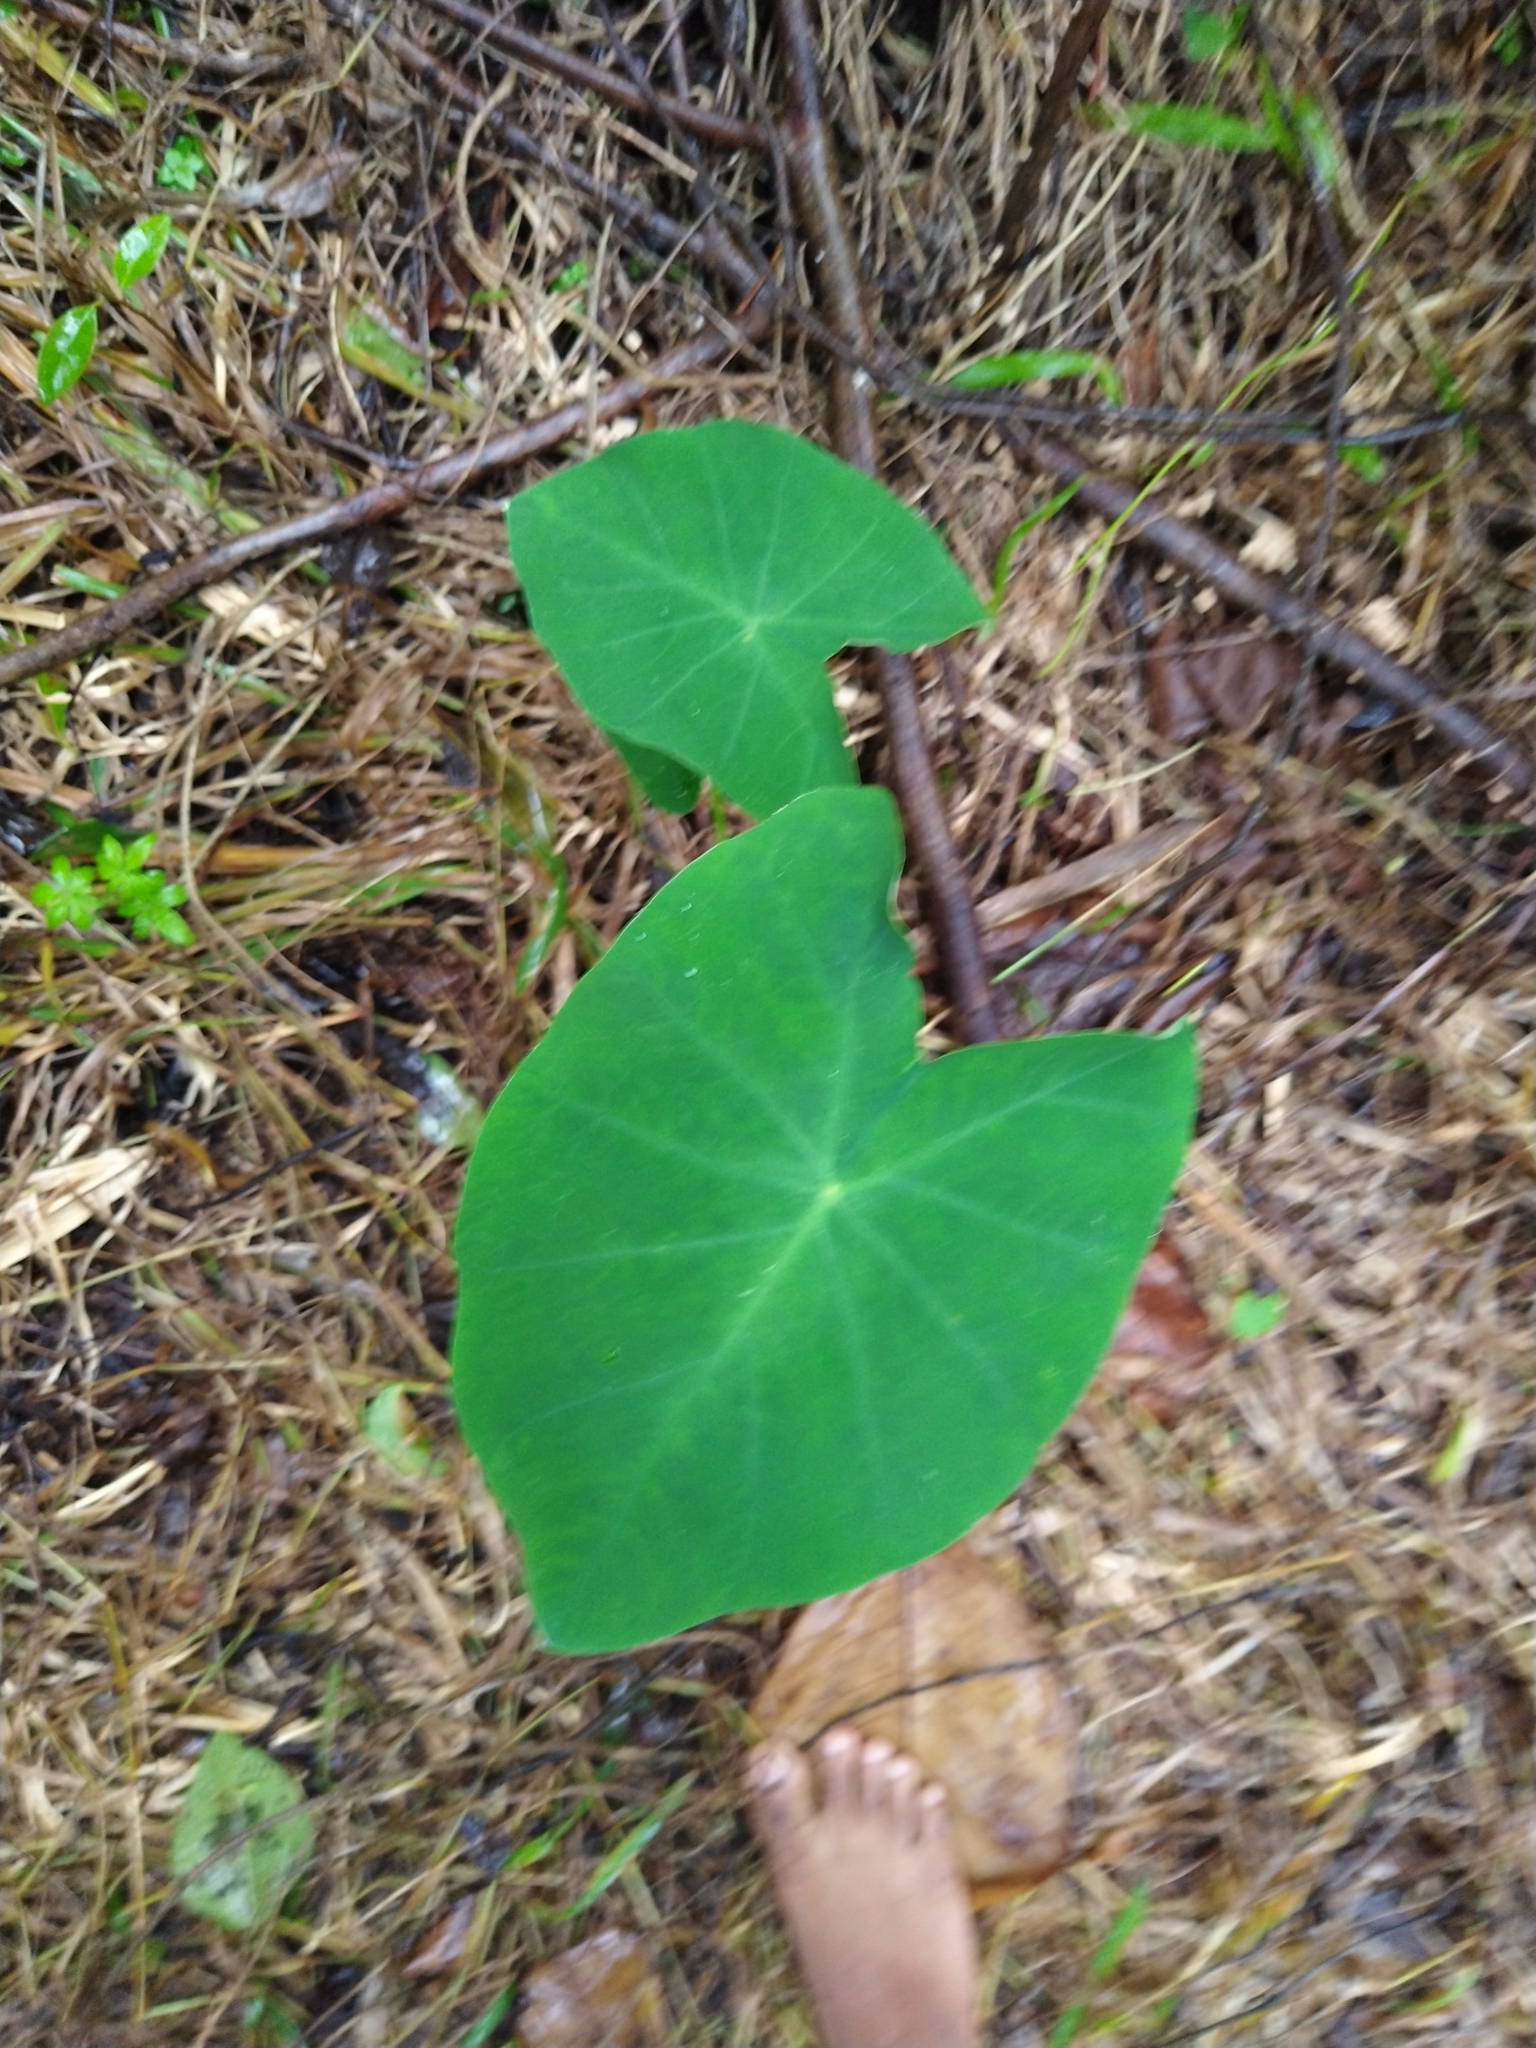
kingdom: Plantae
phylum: Tracheophyta
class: Liliopsida
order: Alismatales
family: Araceae
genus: Colocasia
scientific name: Colocasia esculenta
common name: Taro
